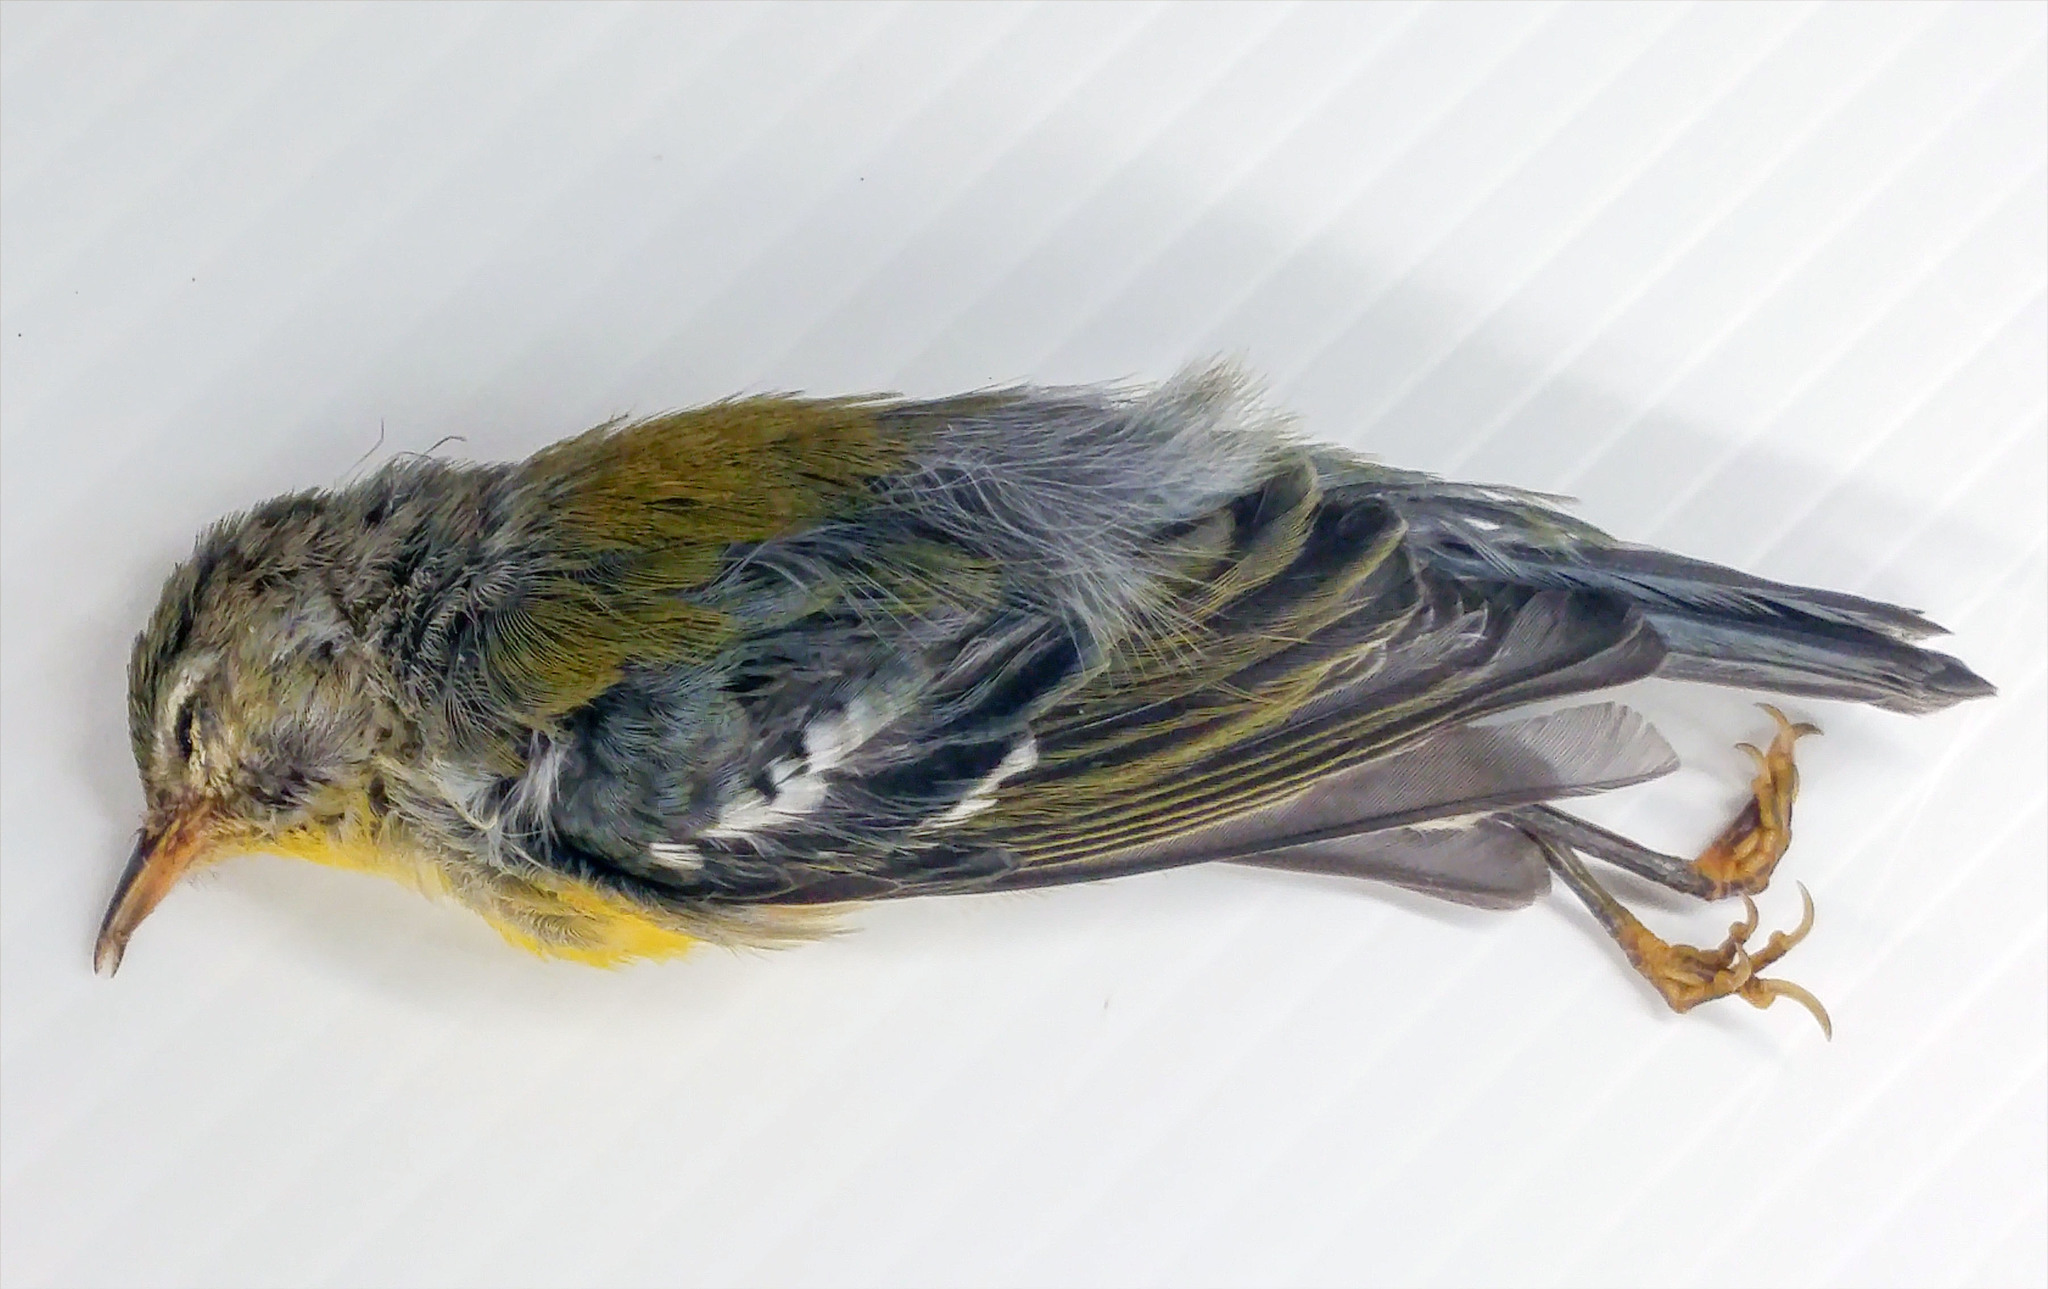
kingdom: Animalia
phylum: Chordata
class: Aves
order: Passeriformes
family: Parulidae
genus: Setophaga
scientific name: Setophaga americana
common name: Northern parula
